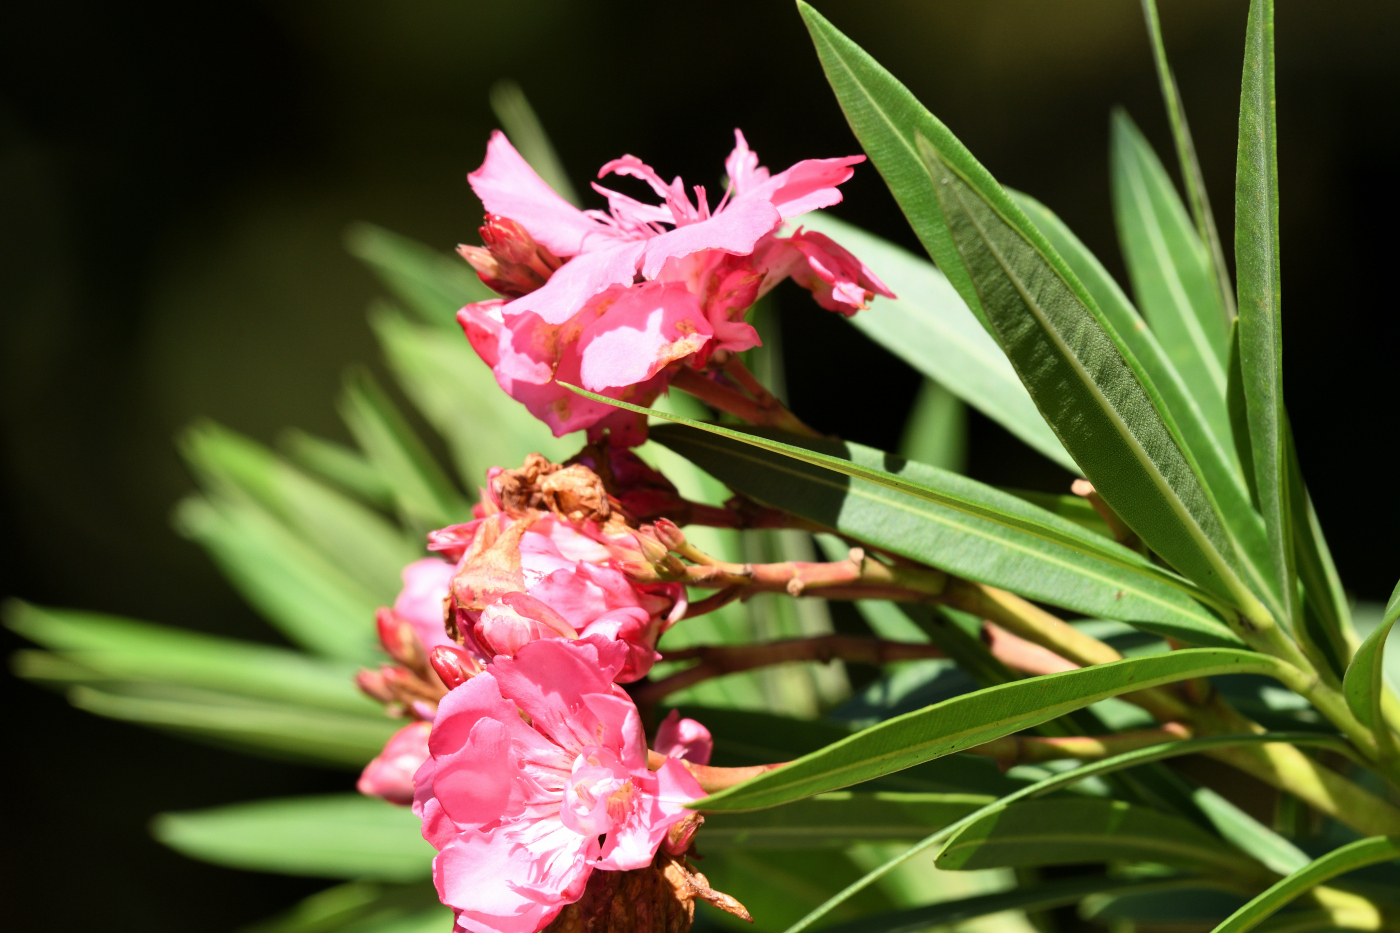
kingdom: Plantae
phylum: Tracheophyta
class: Magnoliopsida
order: Gentianales
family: Apocynaceae
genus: Nerium
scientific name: Nerium oleander
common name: Oleander
